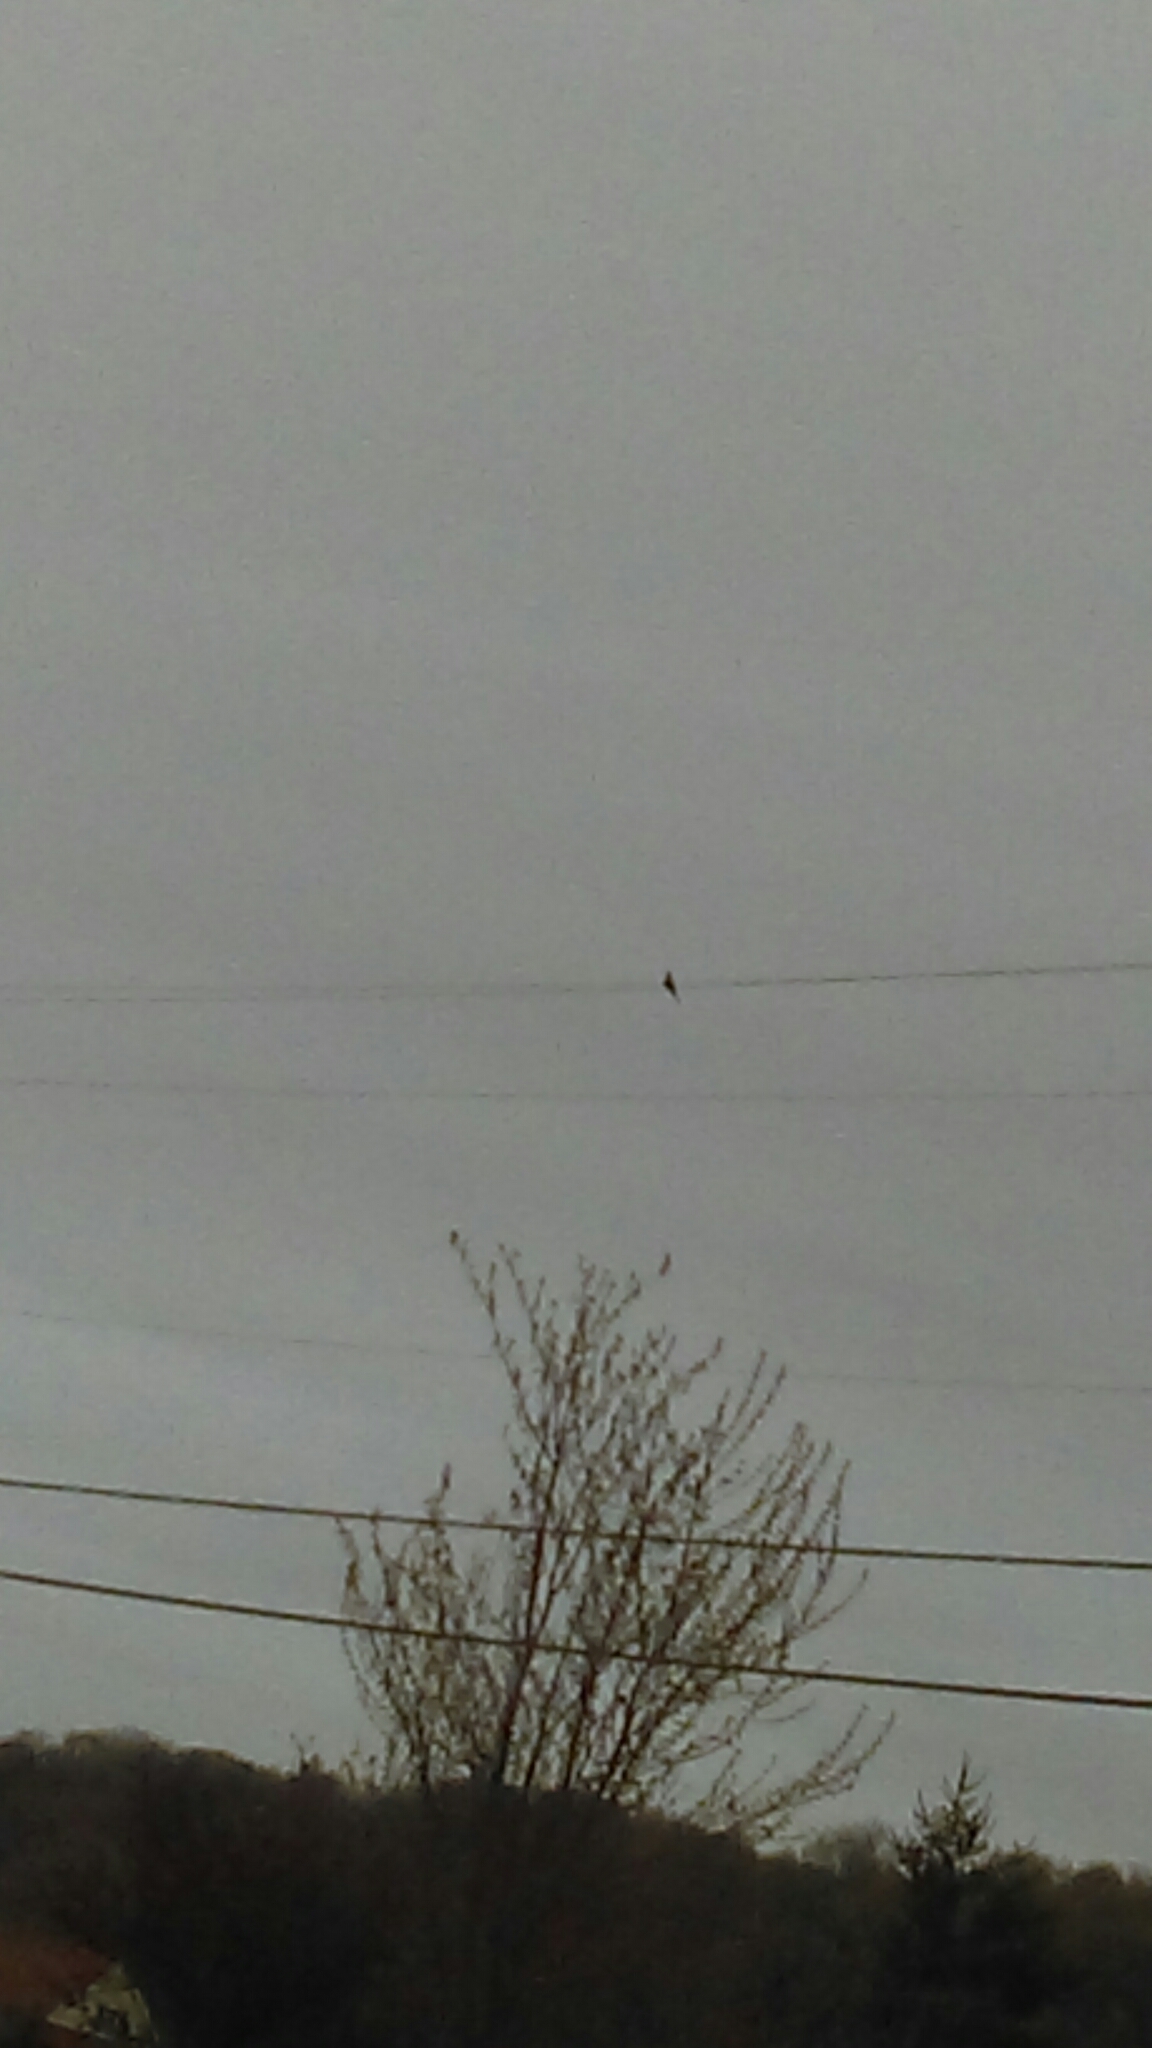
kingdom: Animalia
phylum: Chordata
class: Aves
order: Columbiformes
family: Columbidae
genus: Zenaida
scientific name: Zenaida macroura
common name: Mourning dove
